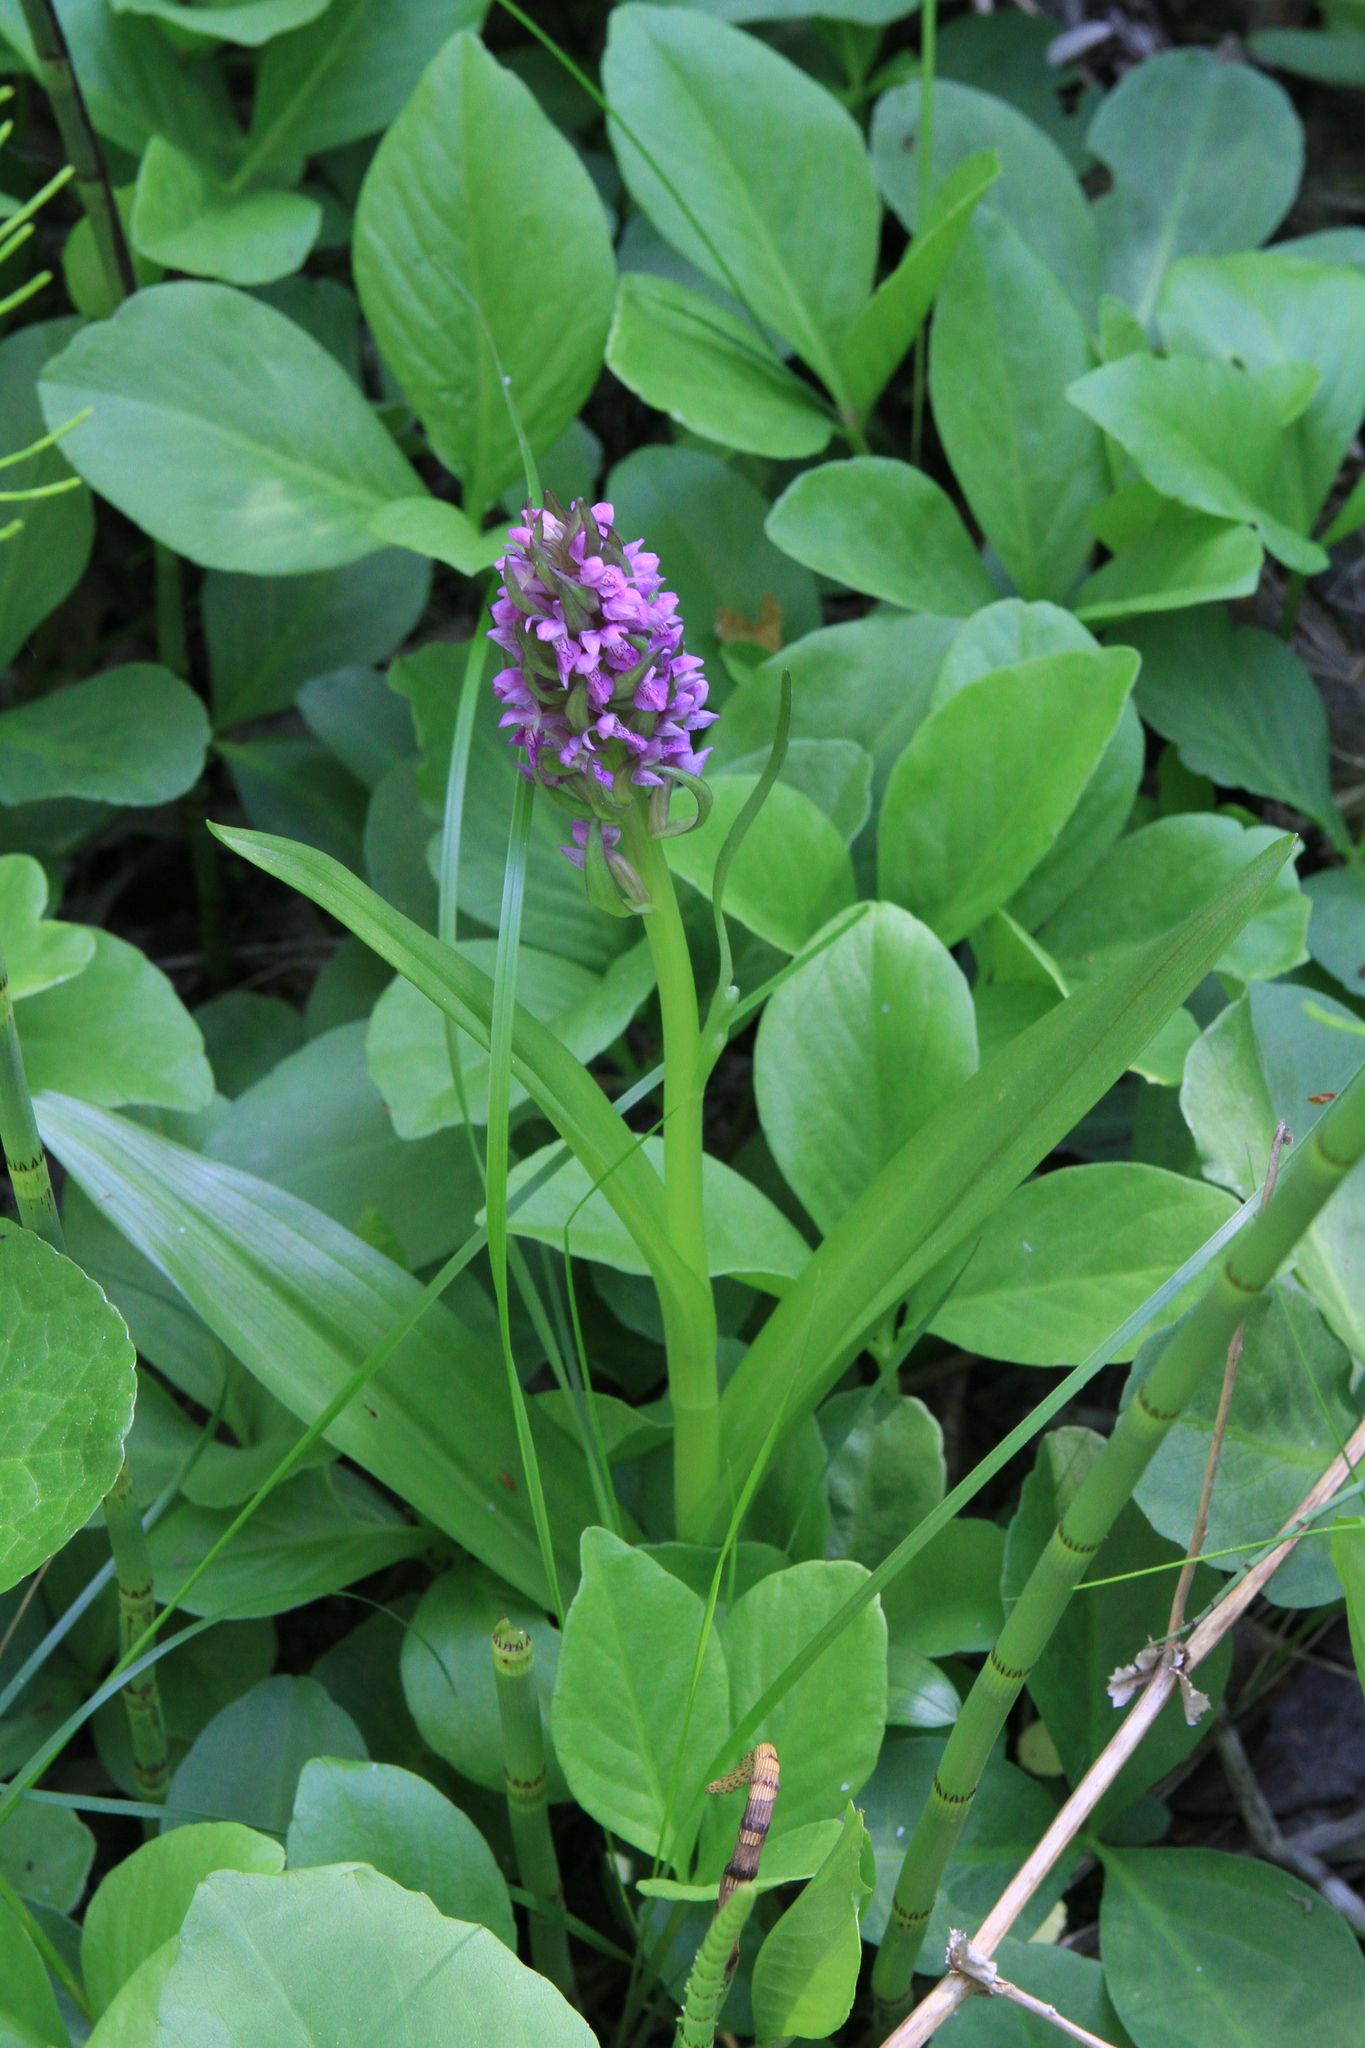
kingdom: Plantae
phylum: Tracheophyta
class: Magnoliopsida
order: Asterales
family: Menyanthaceae
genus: Menyanthes
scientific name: Menyanthes trifoliata
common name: Bogbean
